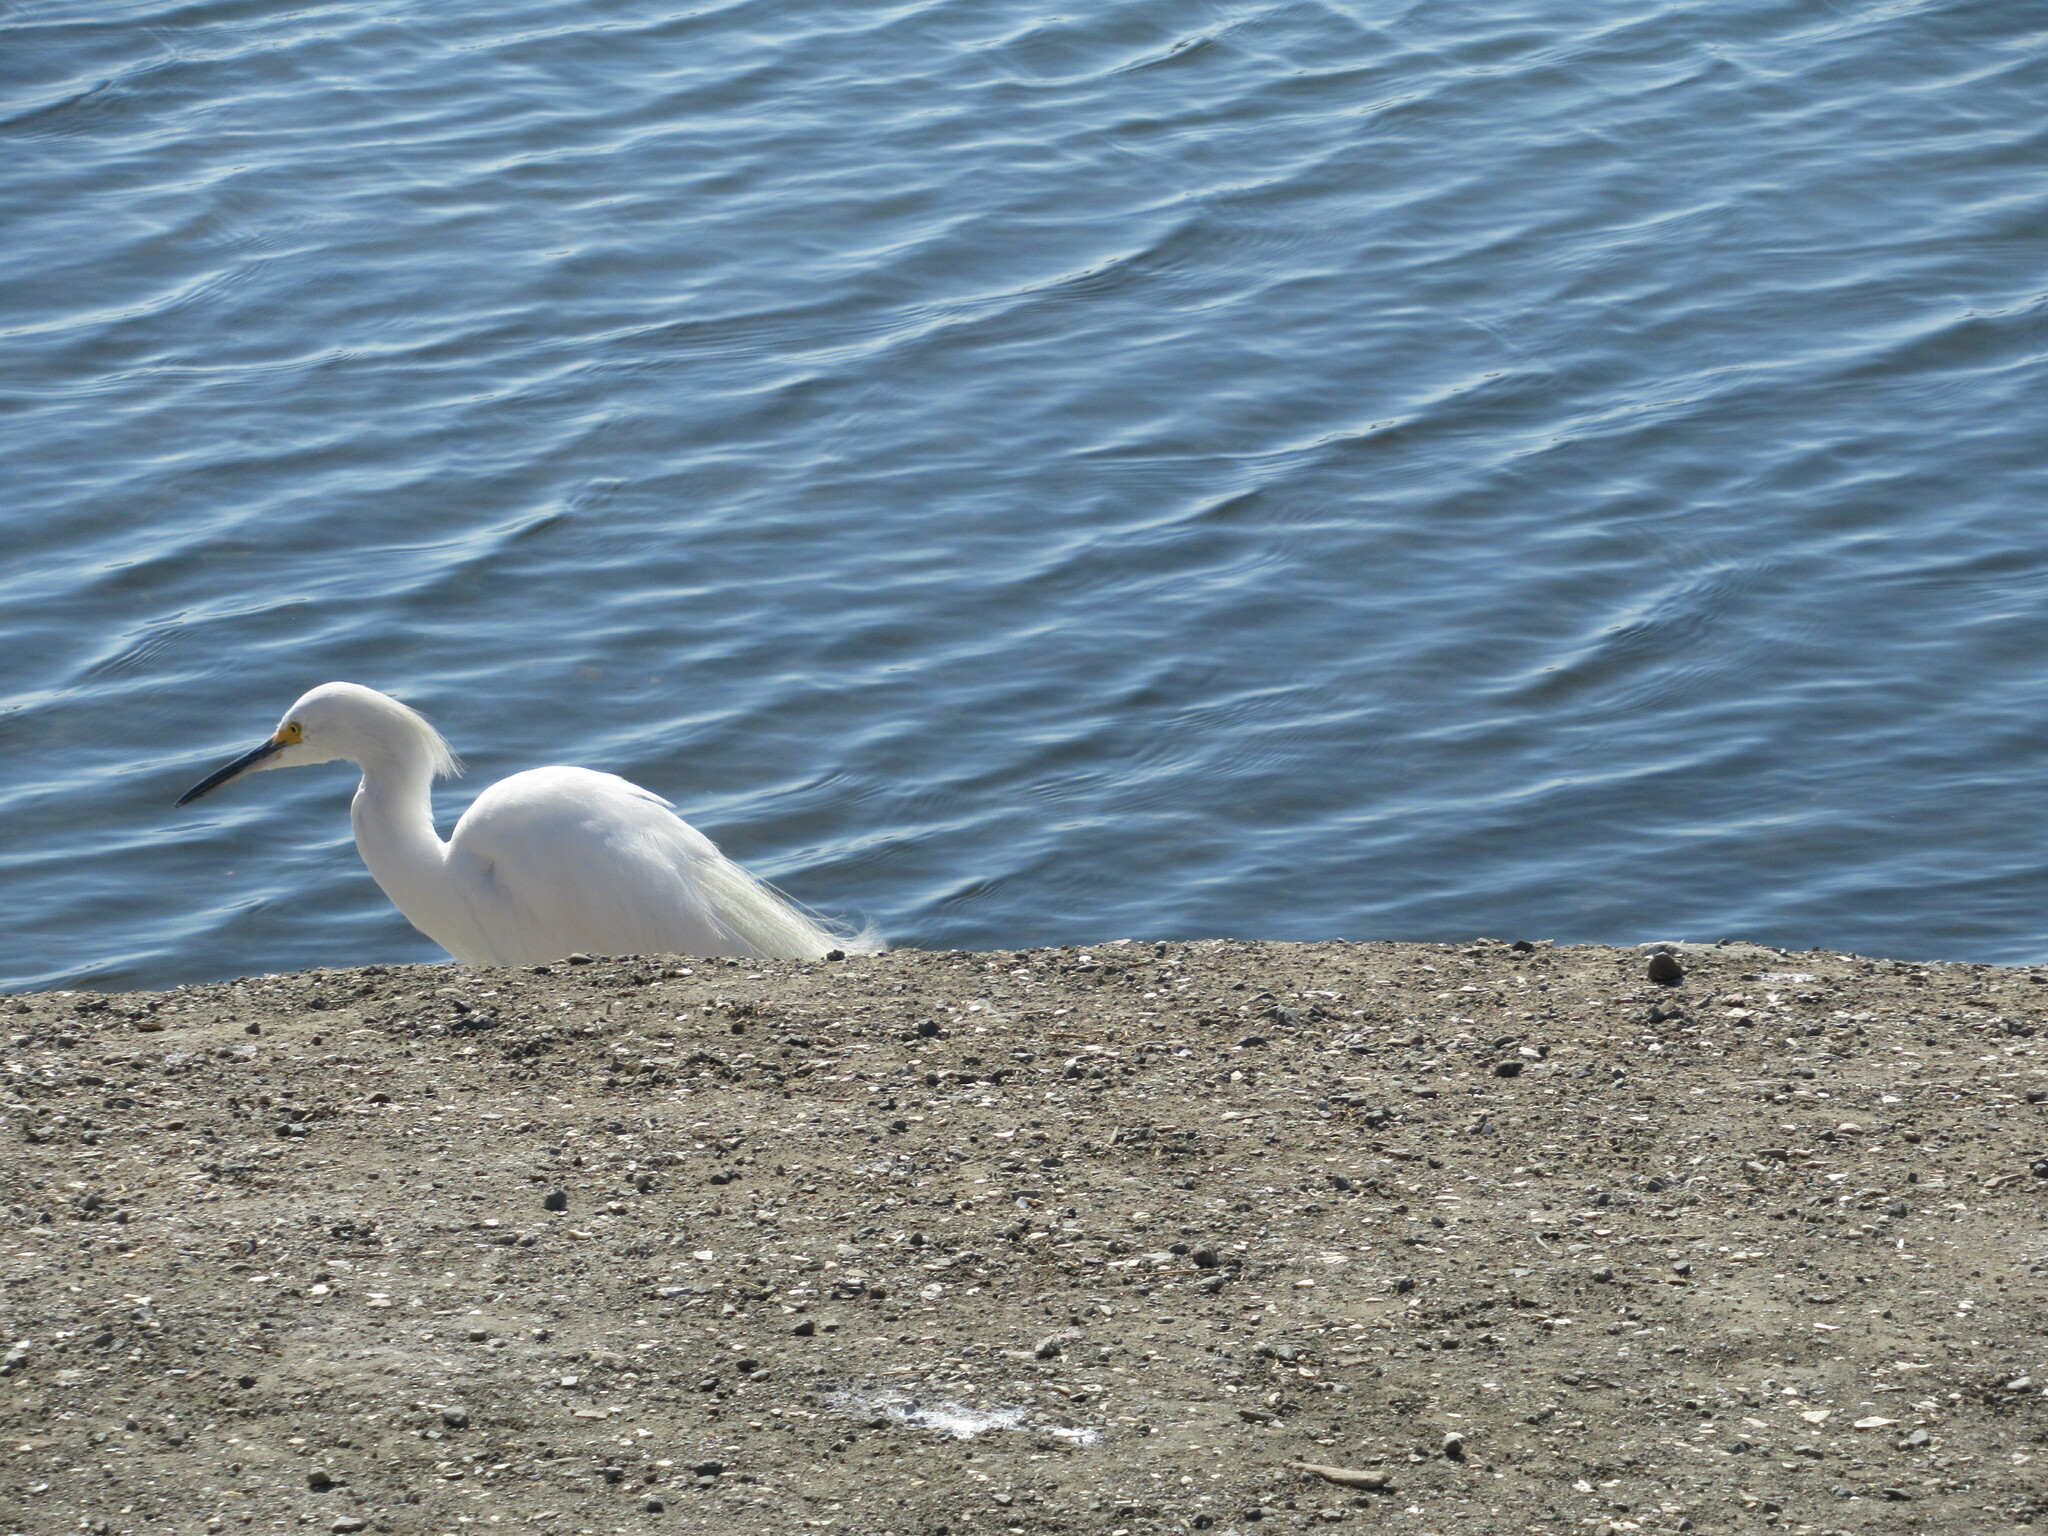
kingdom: Animalia
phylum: Chordata
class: Aves
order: Pelecaniformes
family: Ardeidae
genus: Egretta
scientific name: Egretta thula
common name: Snowy egret
